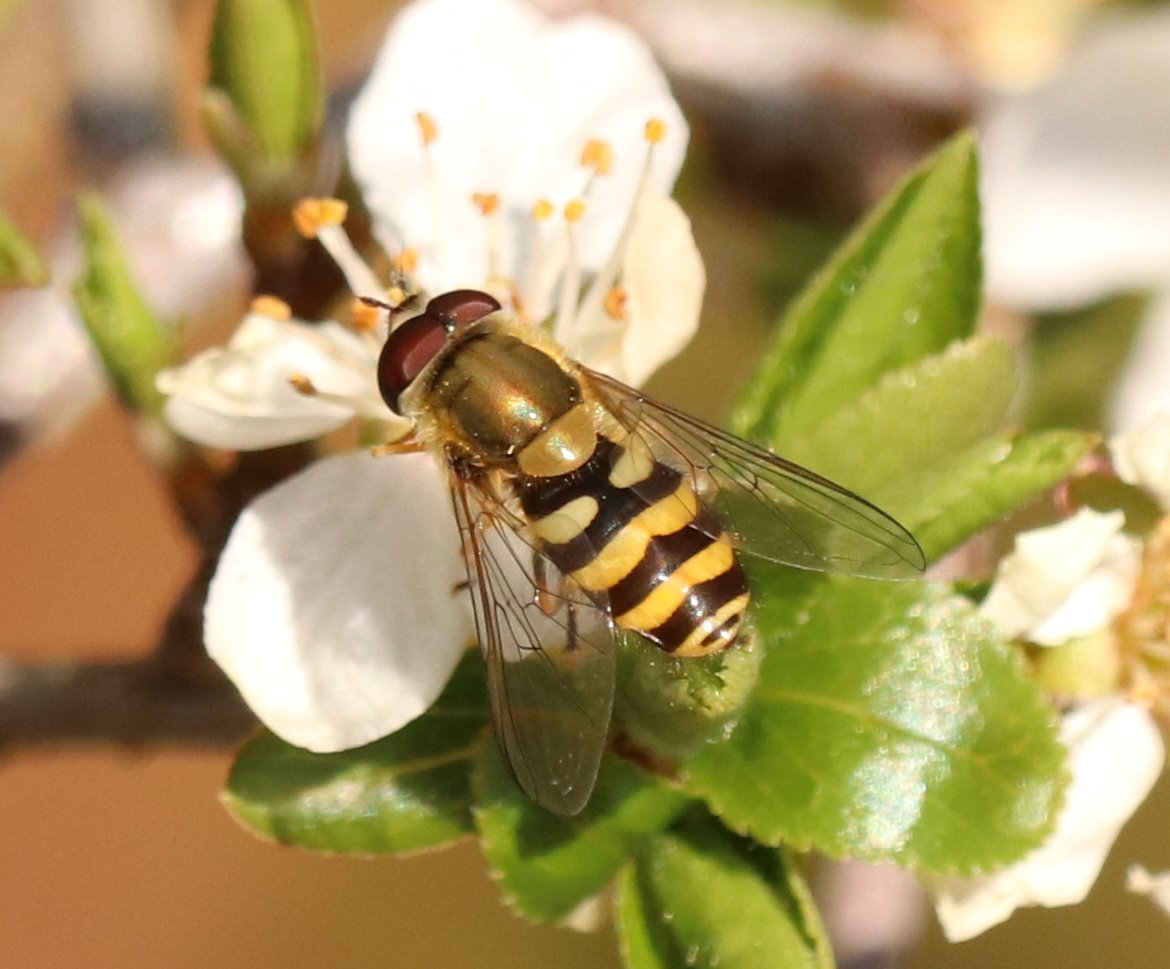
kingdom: Animalia
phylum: Arthropoda
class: Insecta
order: Diptera
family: Syrphidae
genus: Syrphus
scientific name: Syrphus
